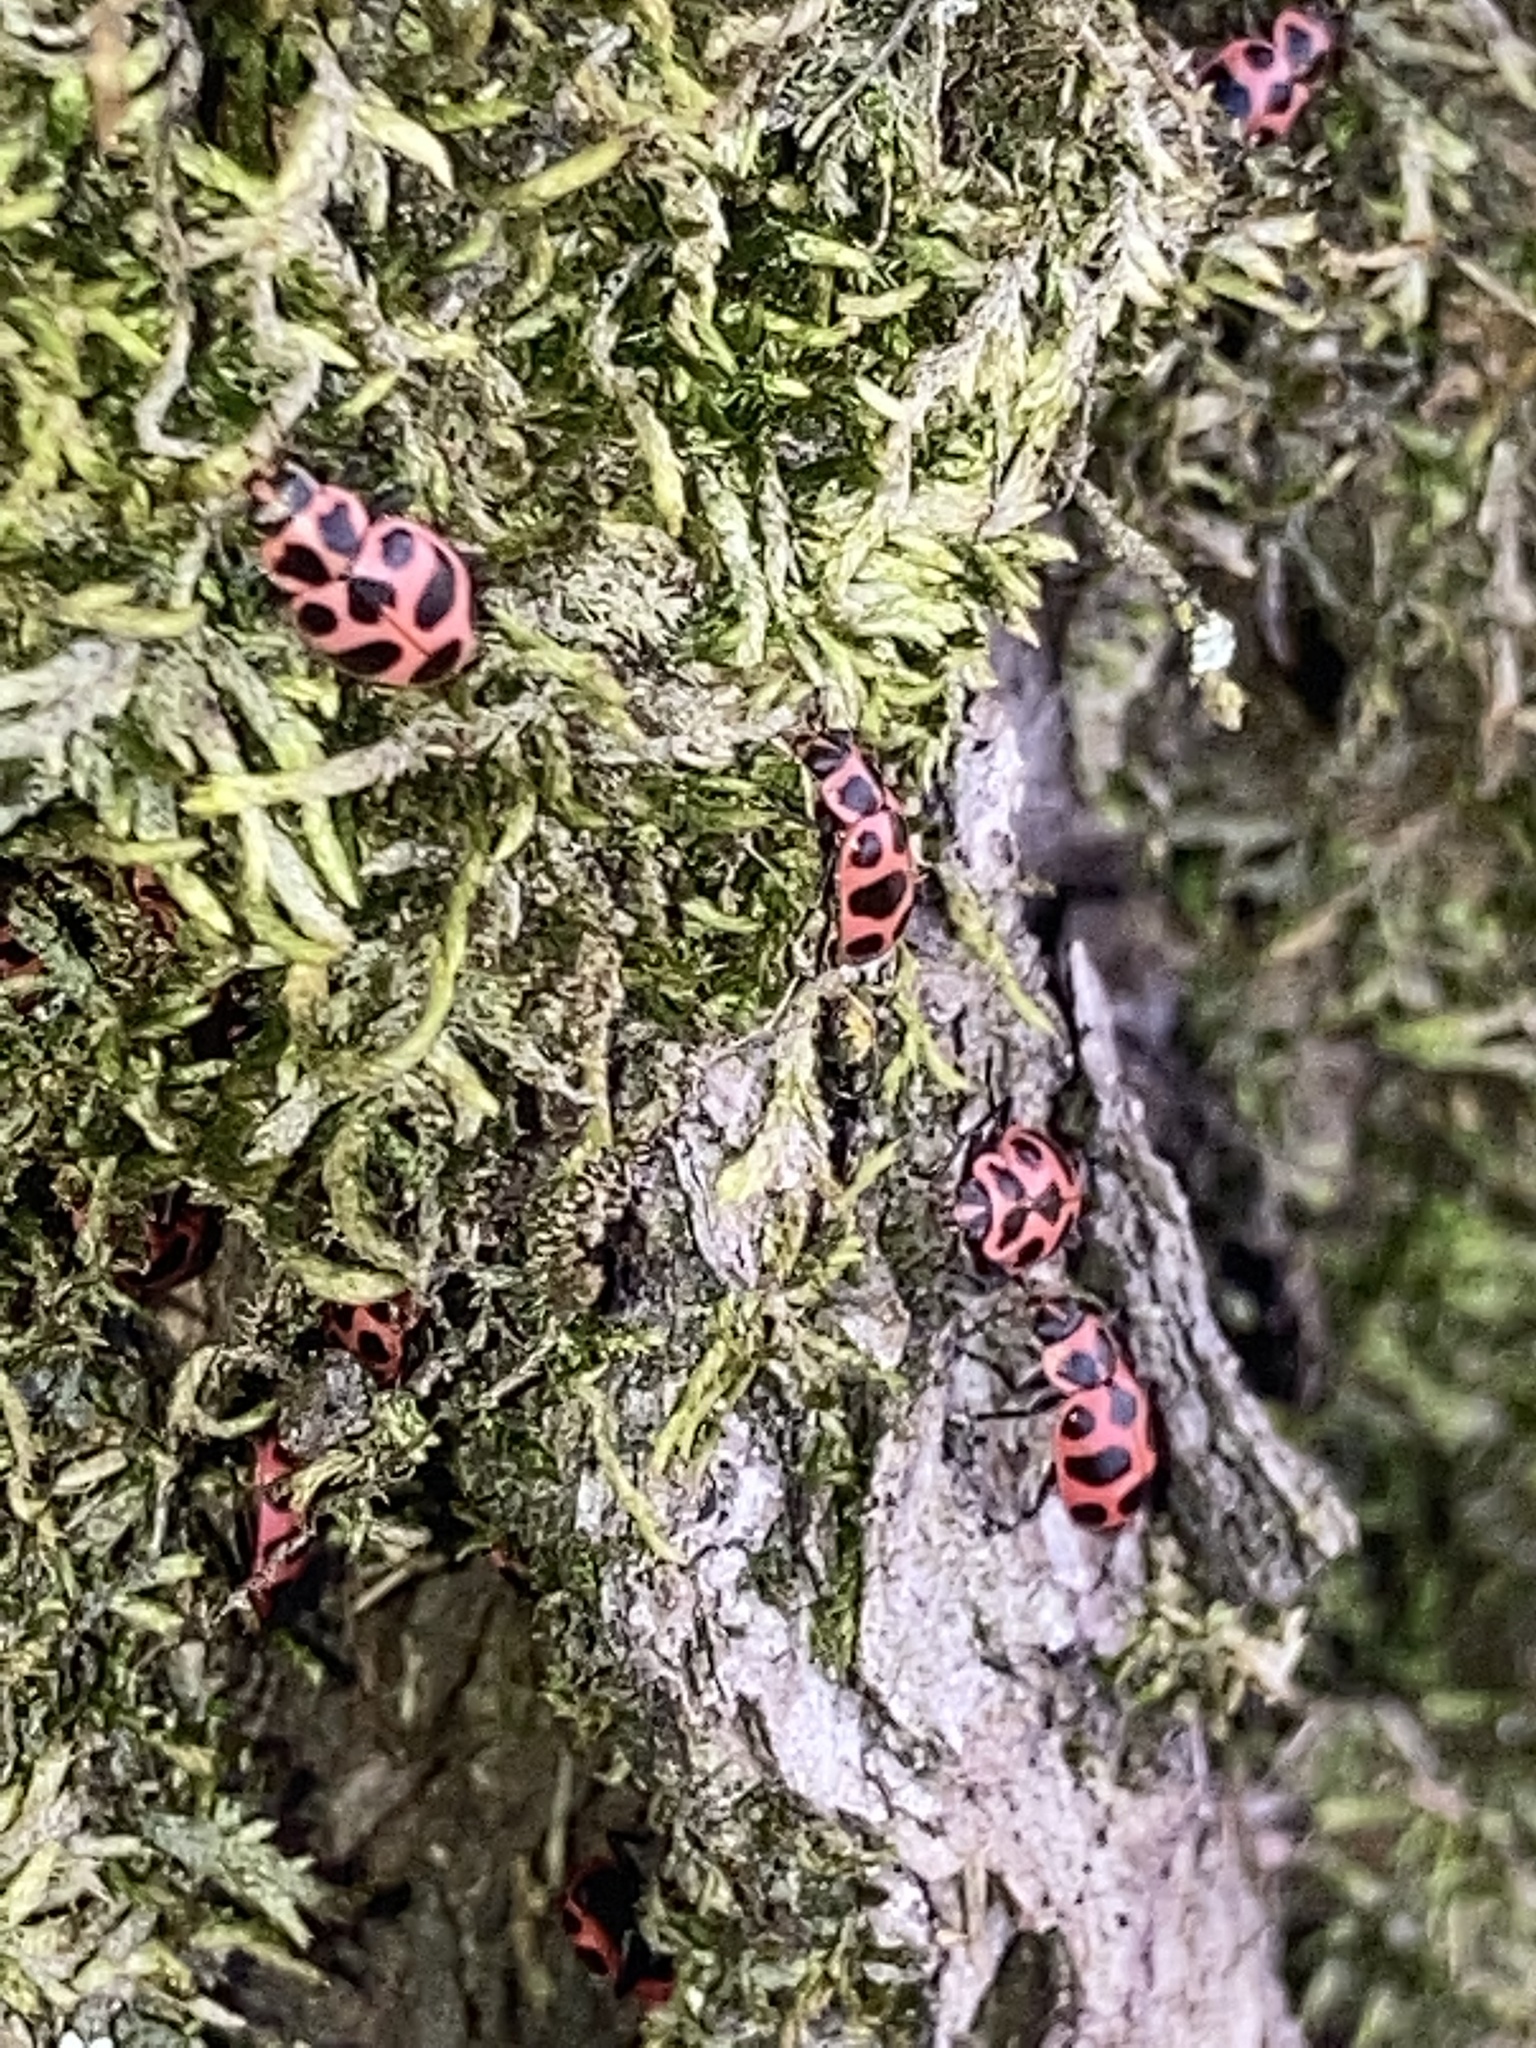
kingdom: Animalia
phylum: Arthropoda
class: Insecta
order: Coleoptera
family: Coccinellidae
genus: Coleomegilla
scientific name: Coleomegilla maculata
